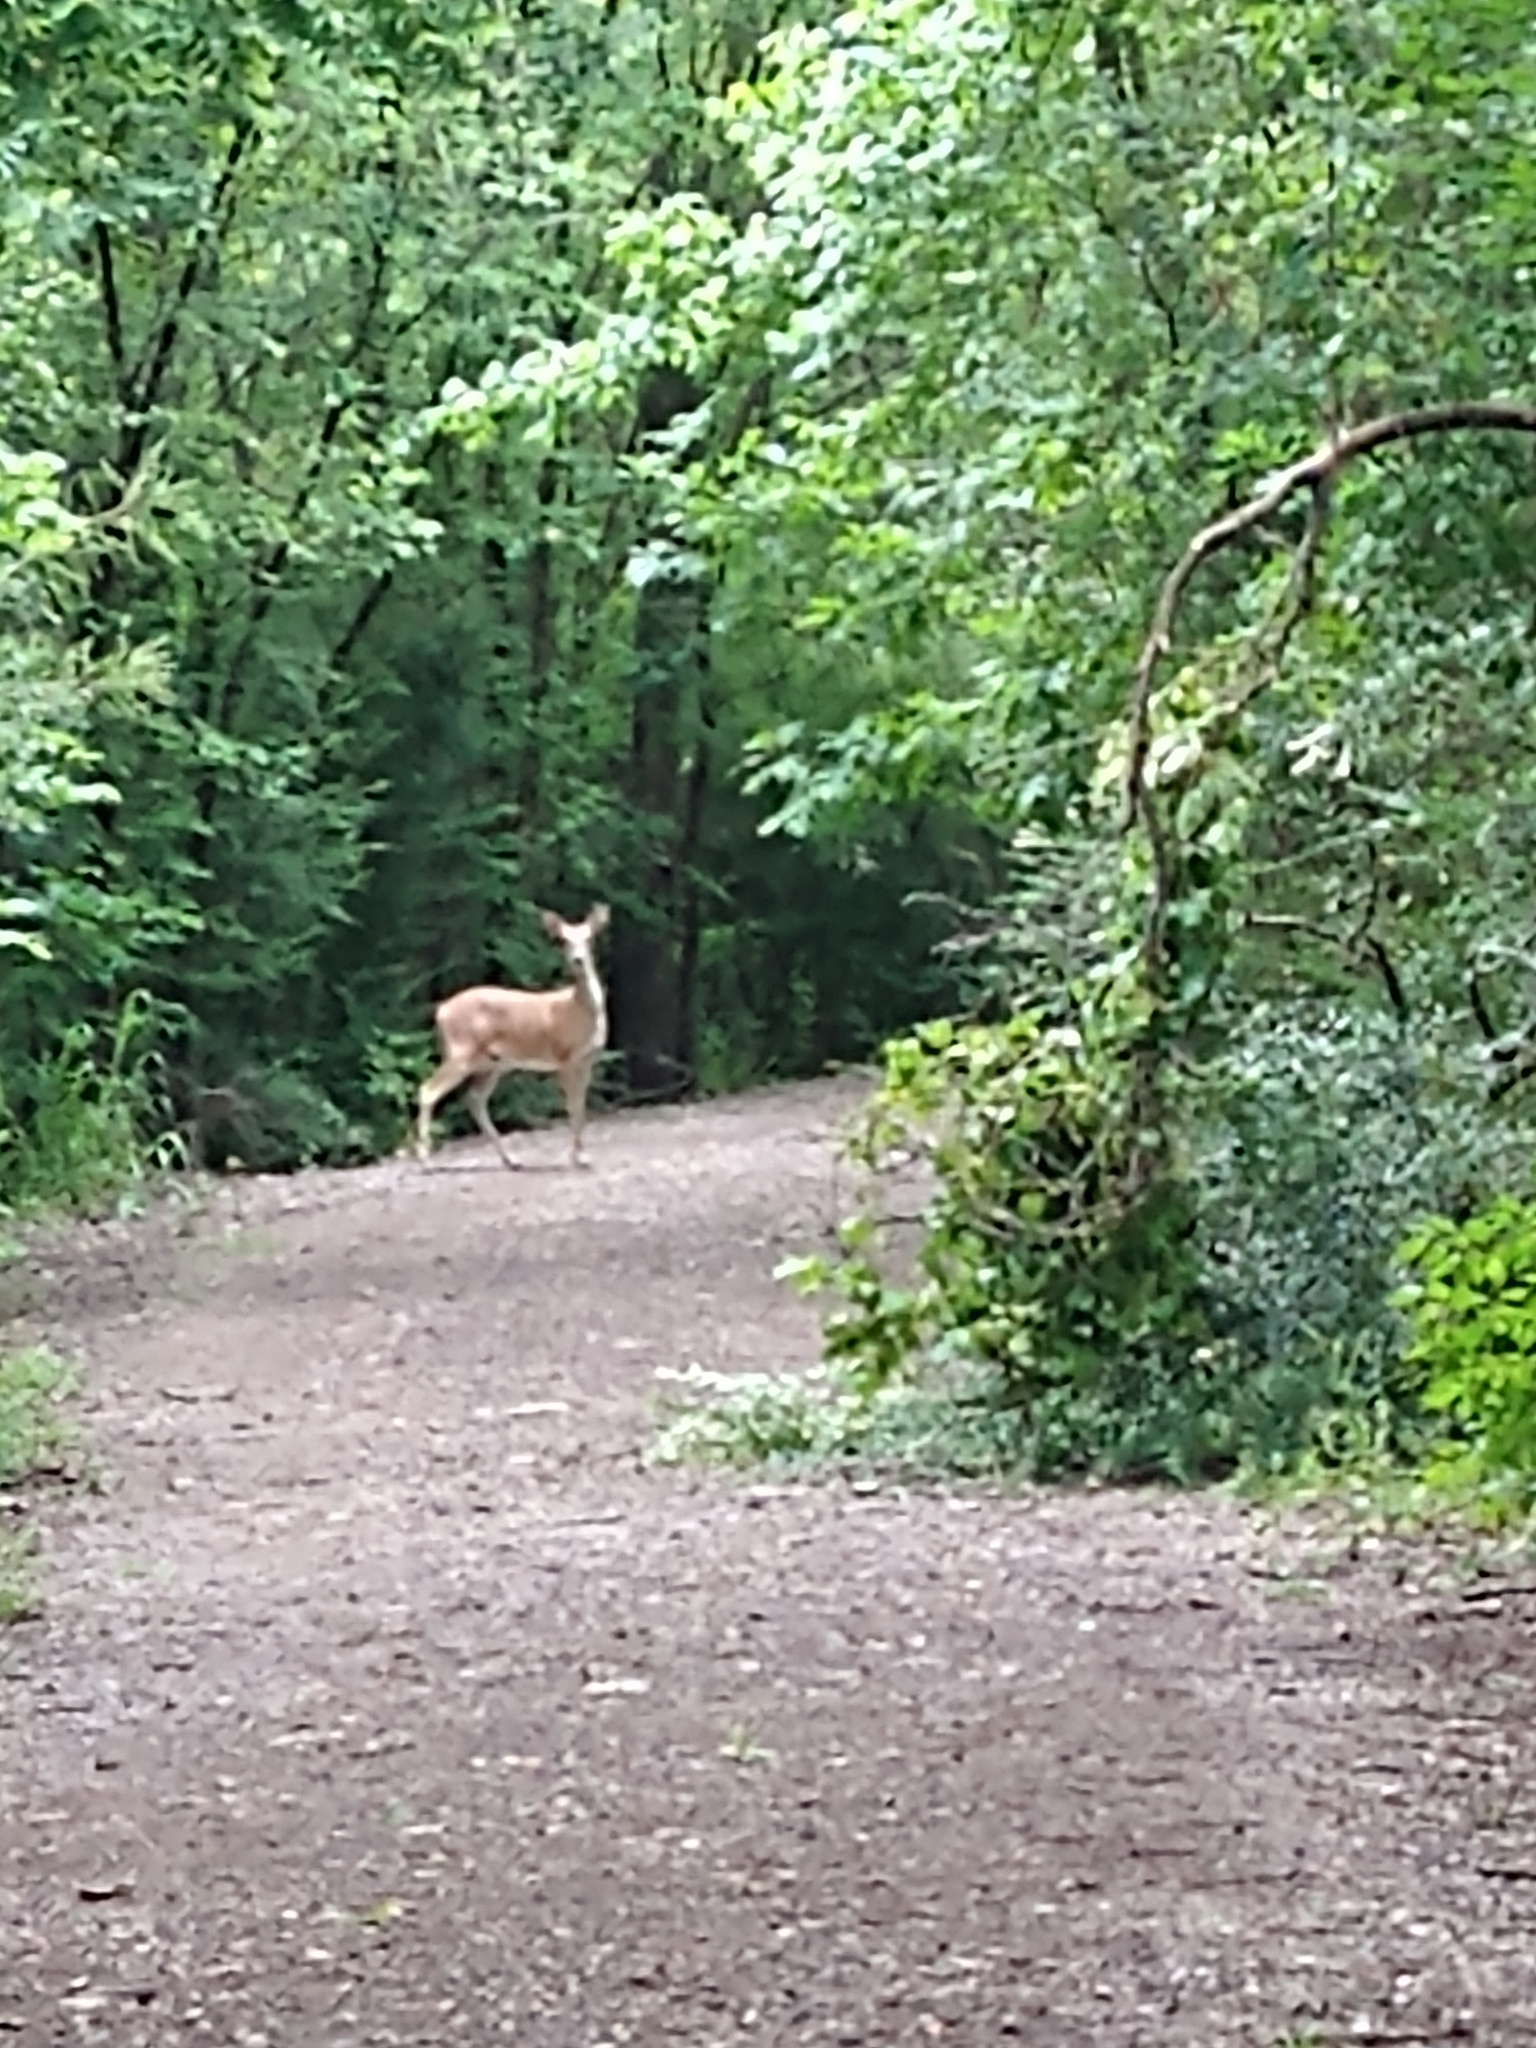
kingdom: Animalia
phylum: Chordata
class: Mammalia
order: Artiodactyla
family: Cervidae
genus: Odocoileus
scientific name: Odocoileus virginianus
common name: White-tailed deer
